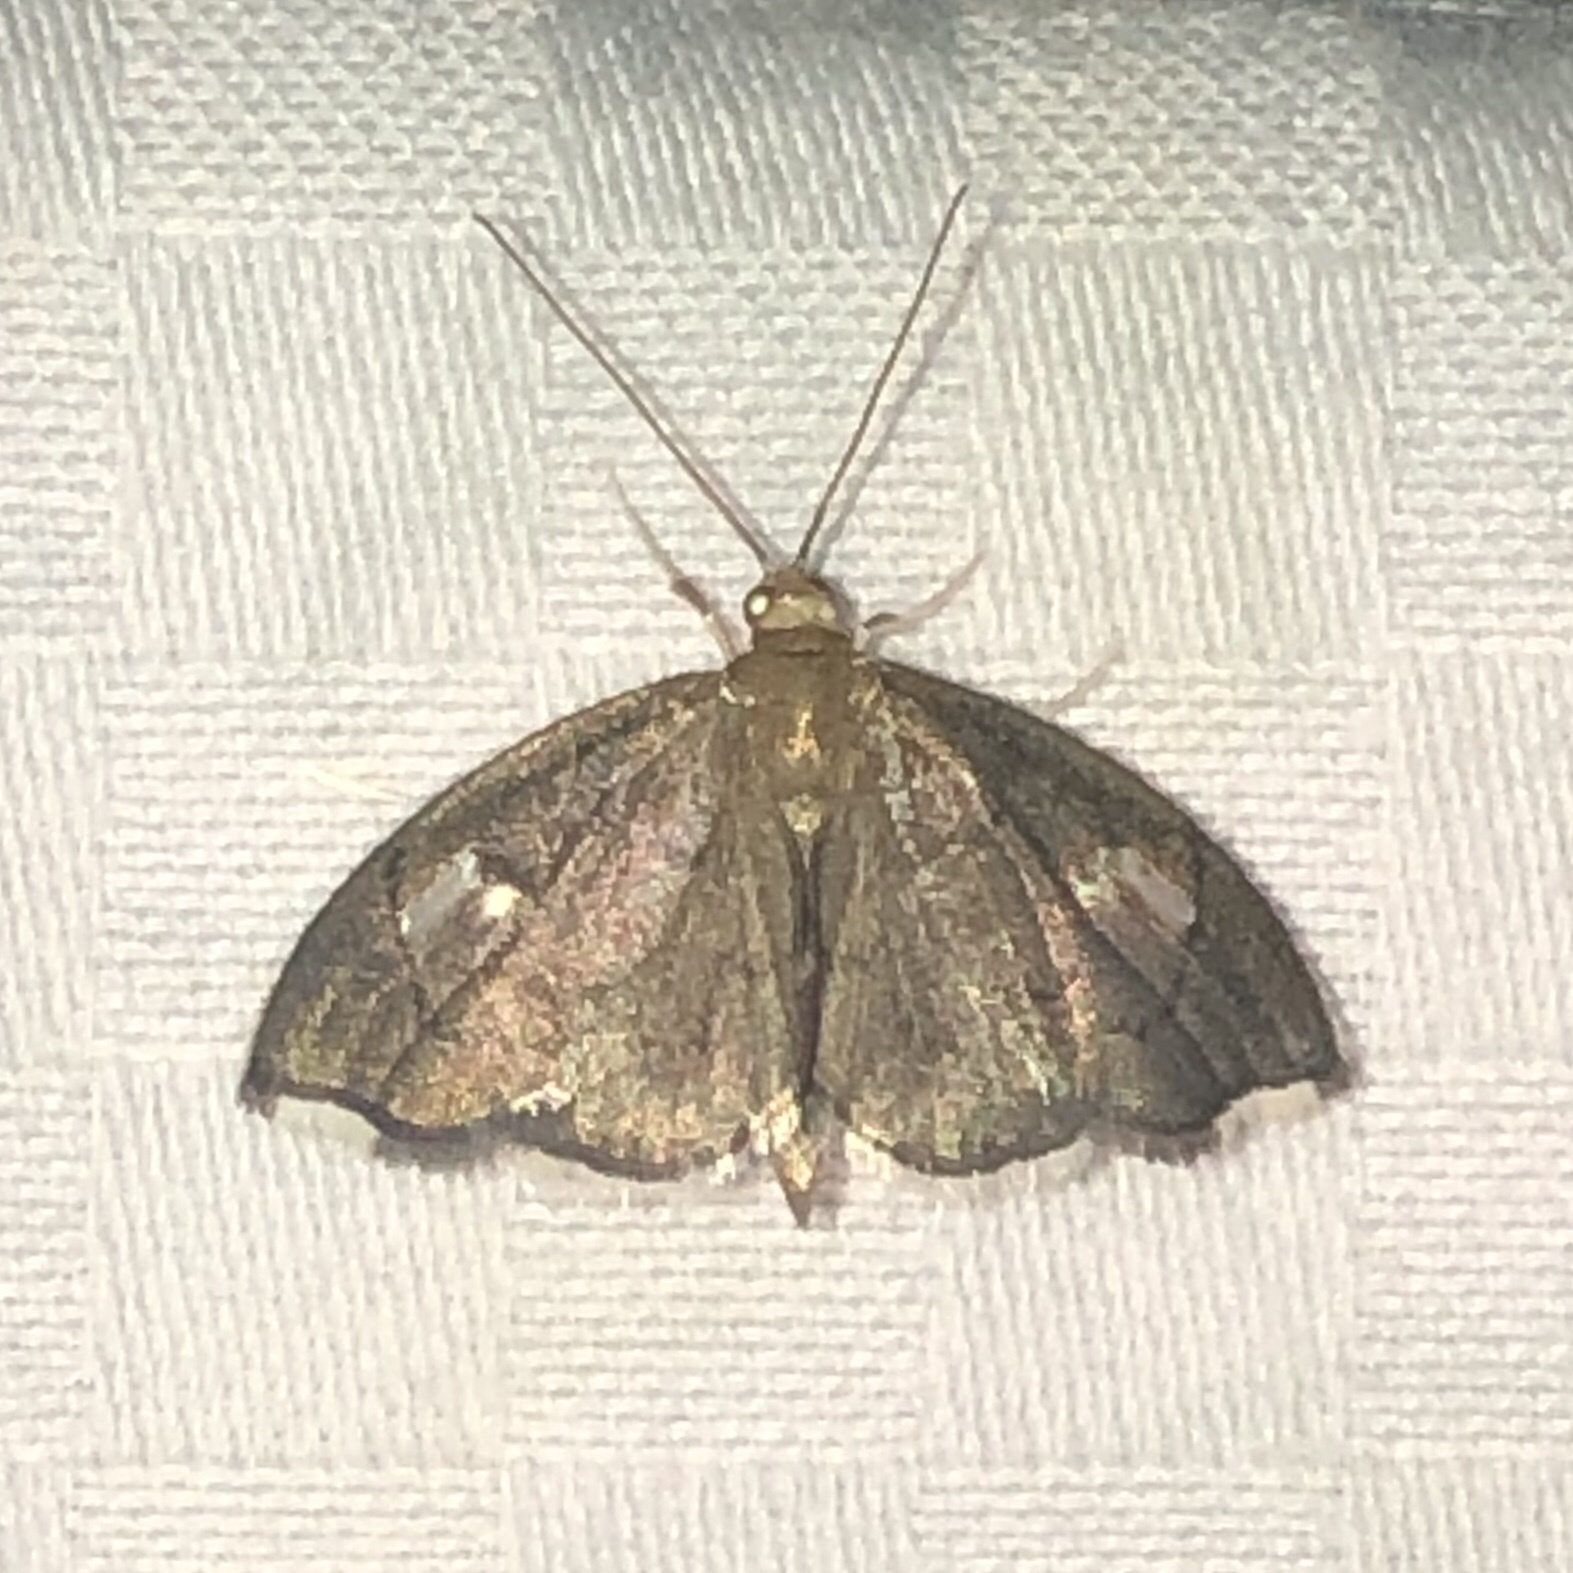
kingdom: Animalia
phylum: Arthropoda
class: Insecta
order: Lepidoptera
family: Crambidae
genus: Perispasta
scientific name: Perispasta caeculalis
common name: Titian peale's moth
